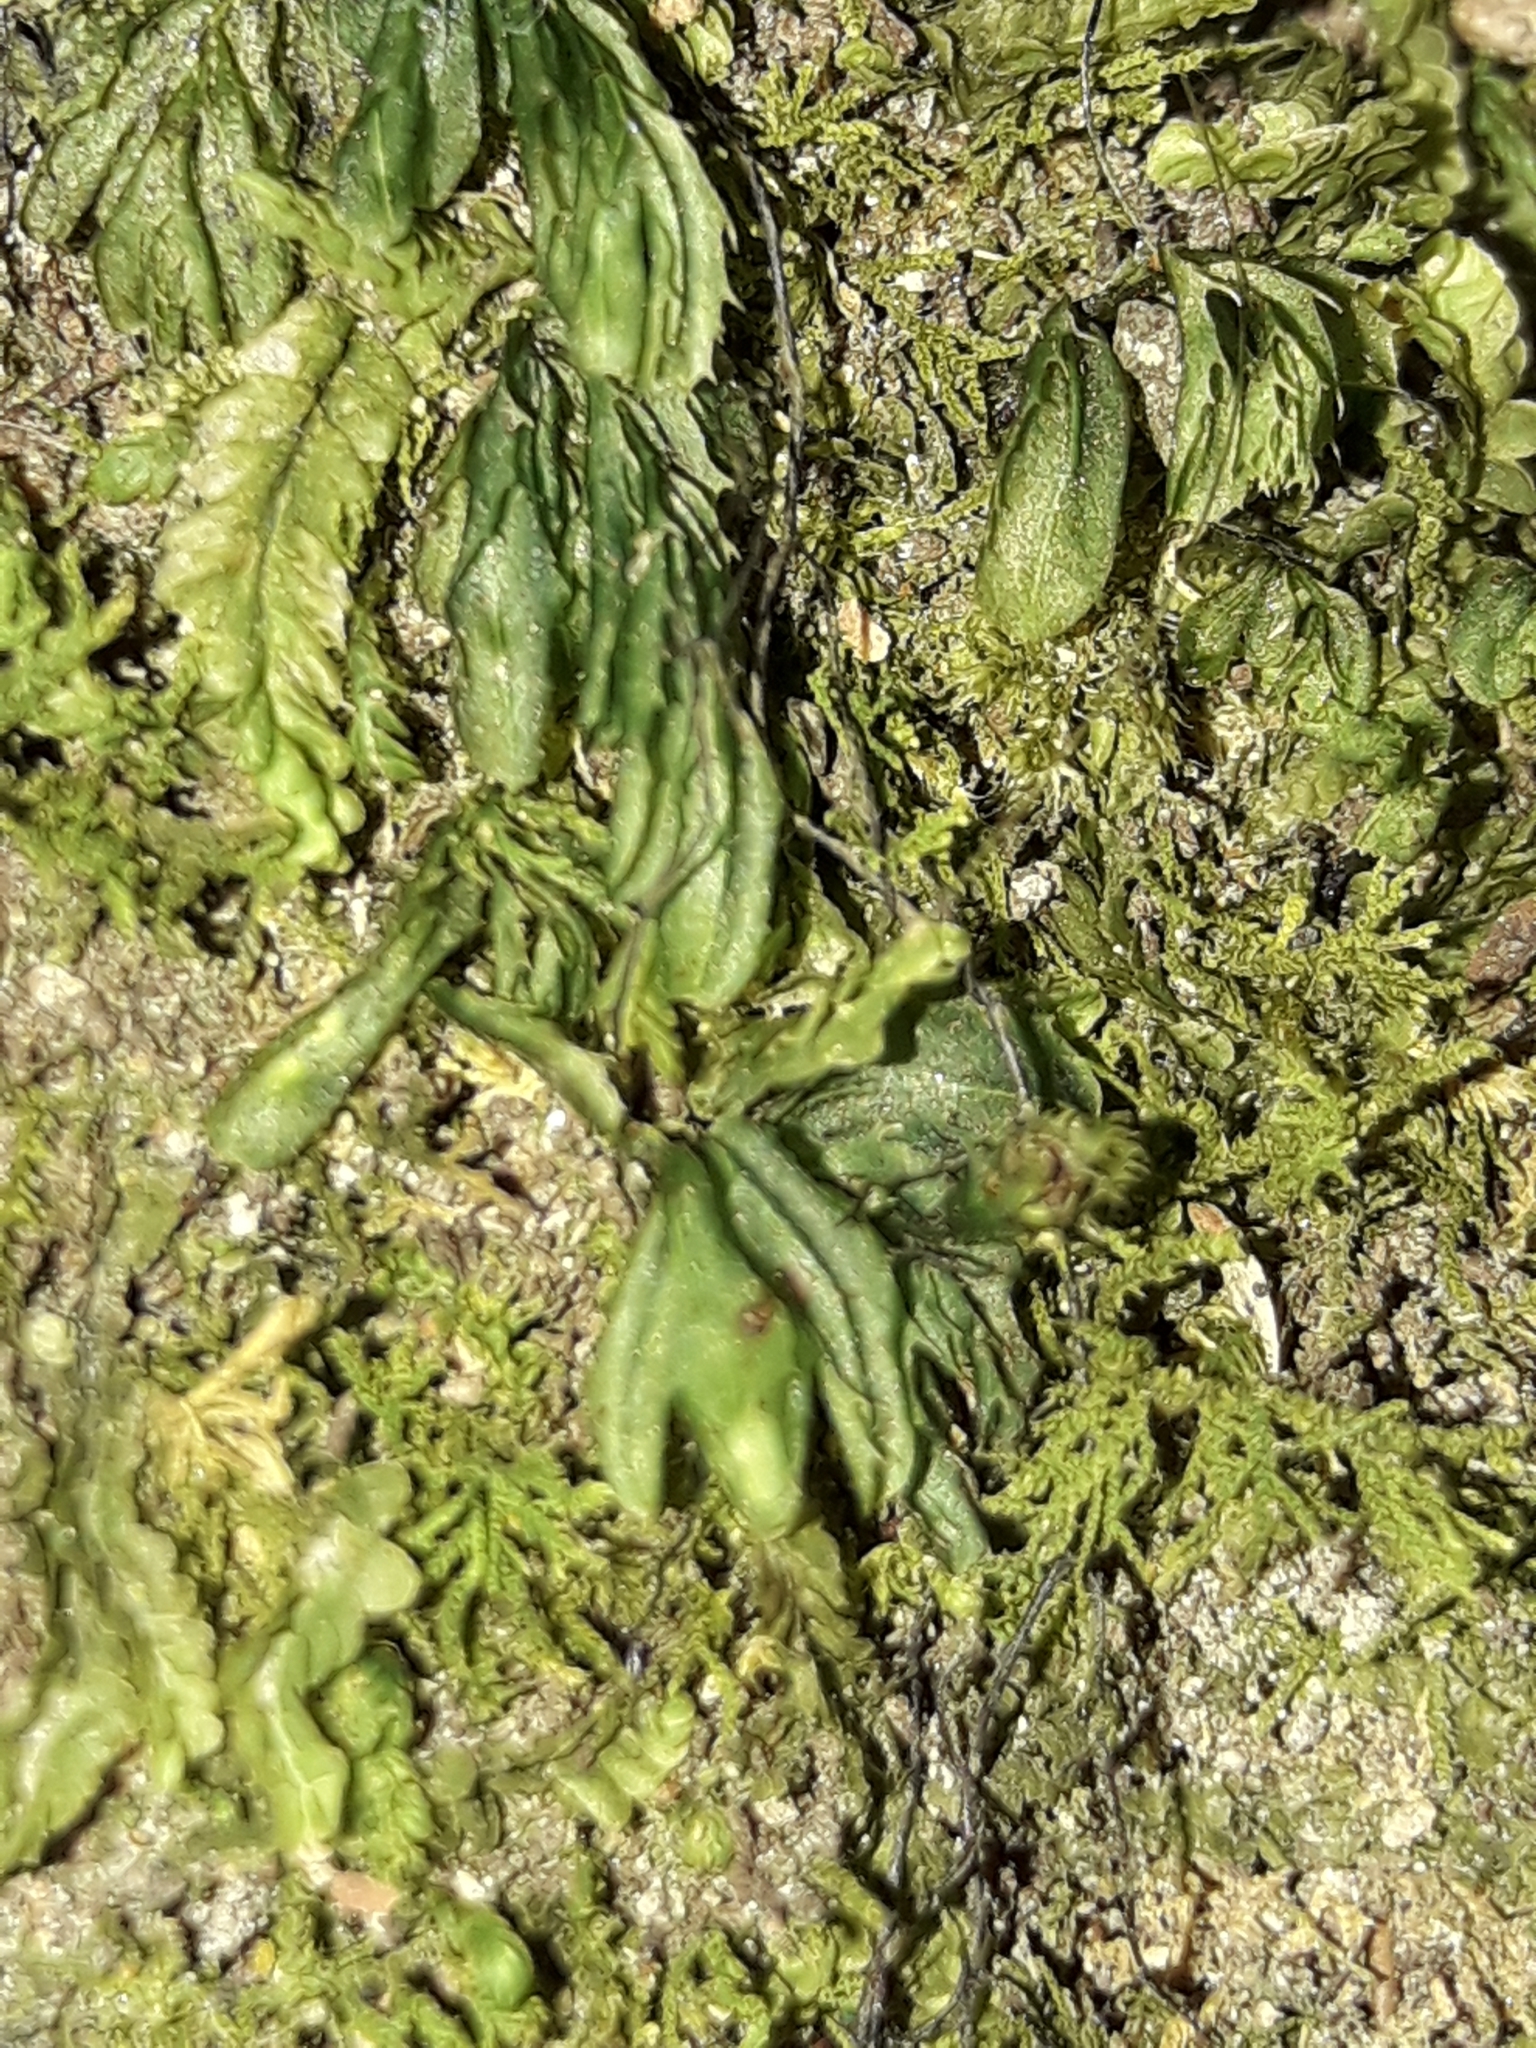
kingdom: Plantae
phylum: Tracheophyta
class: Polypodiopsida
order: Hymenophyllales
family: Hymenophyllaceae
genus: Hymenophyllum
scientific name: Hymenophyllum minimum
